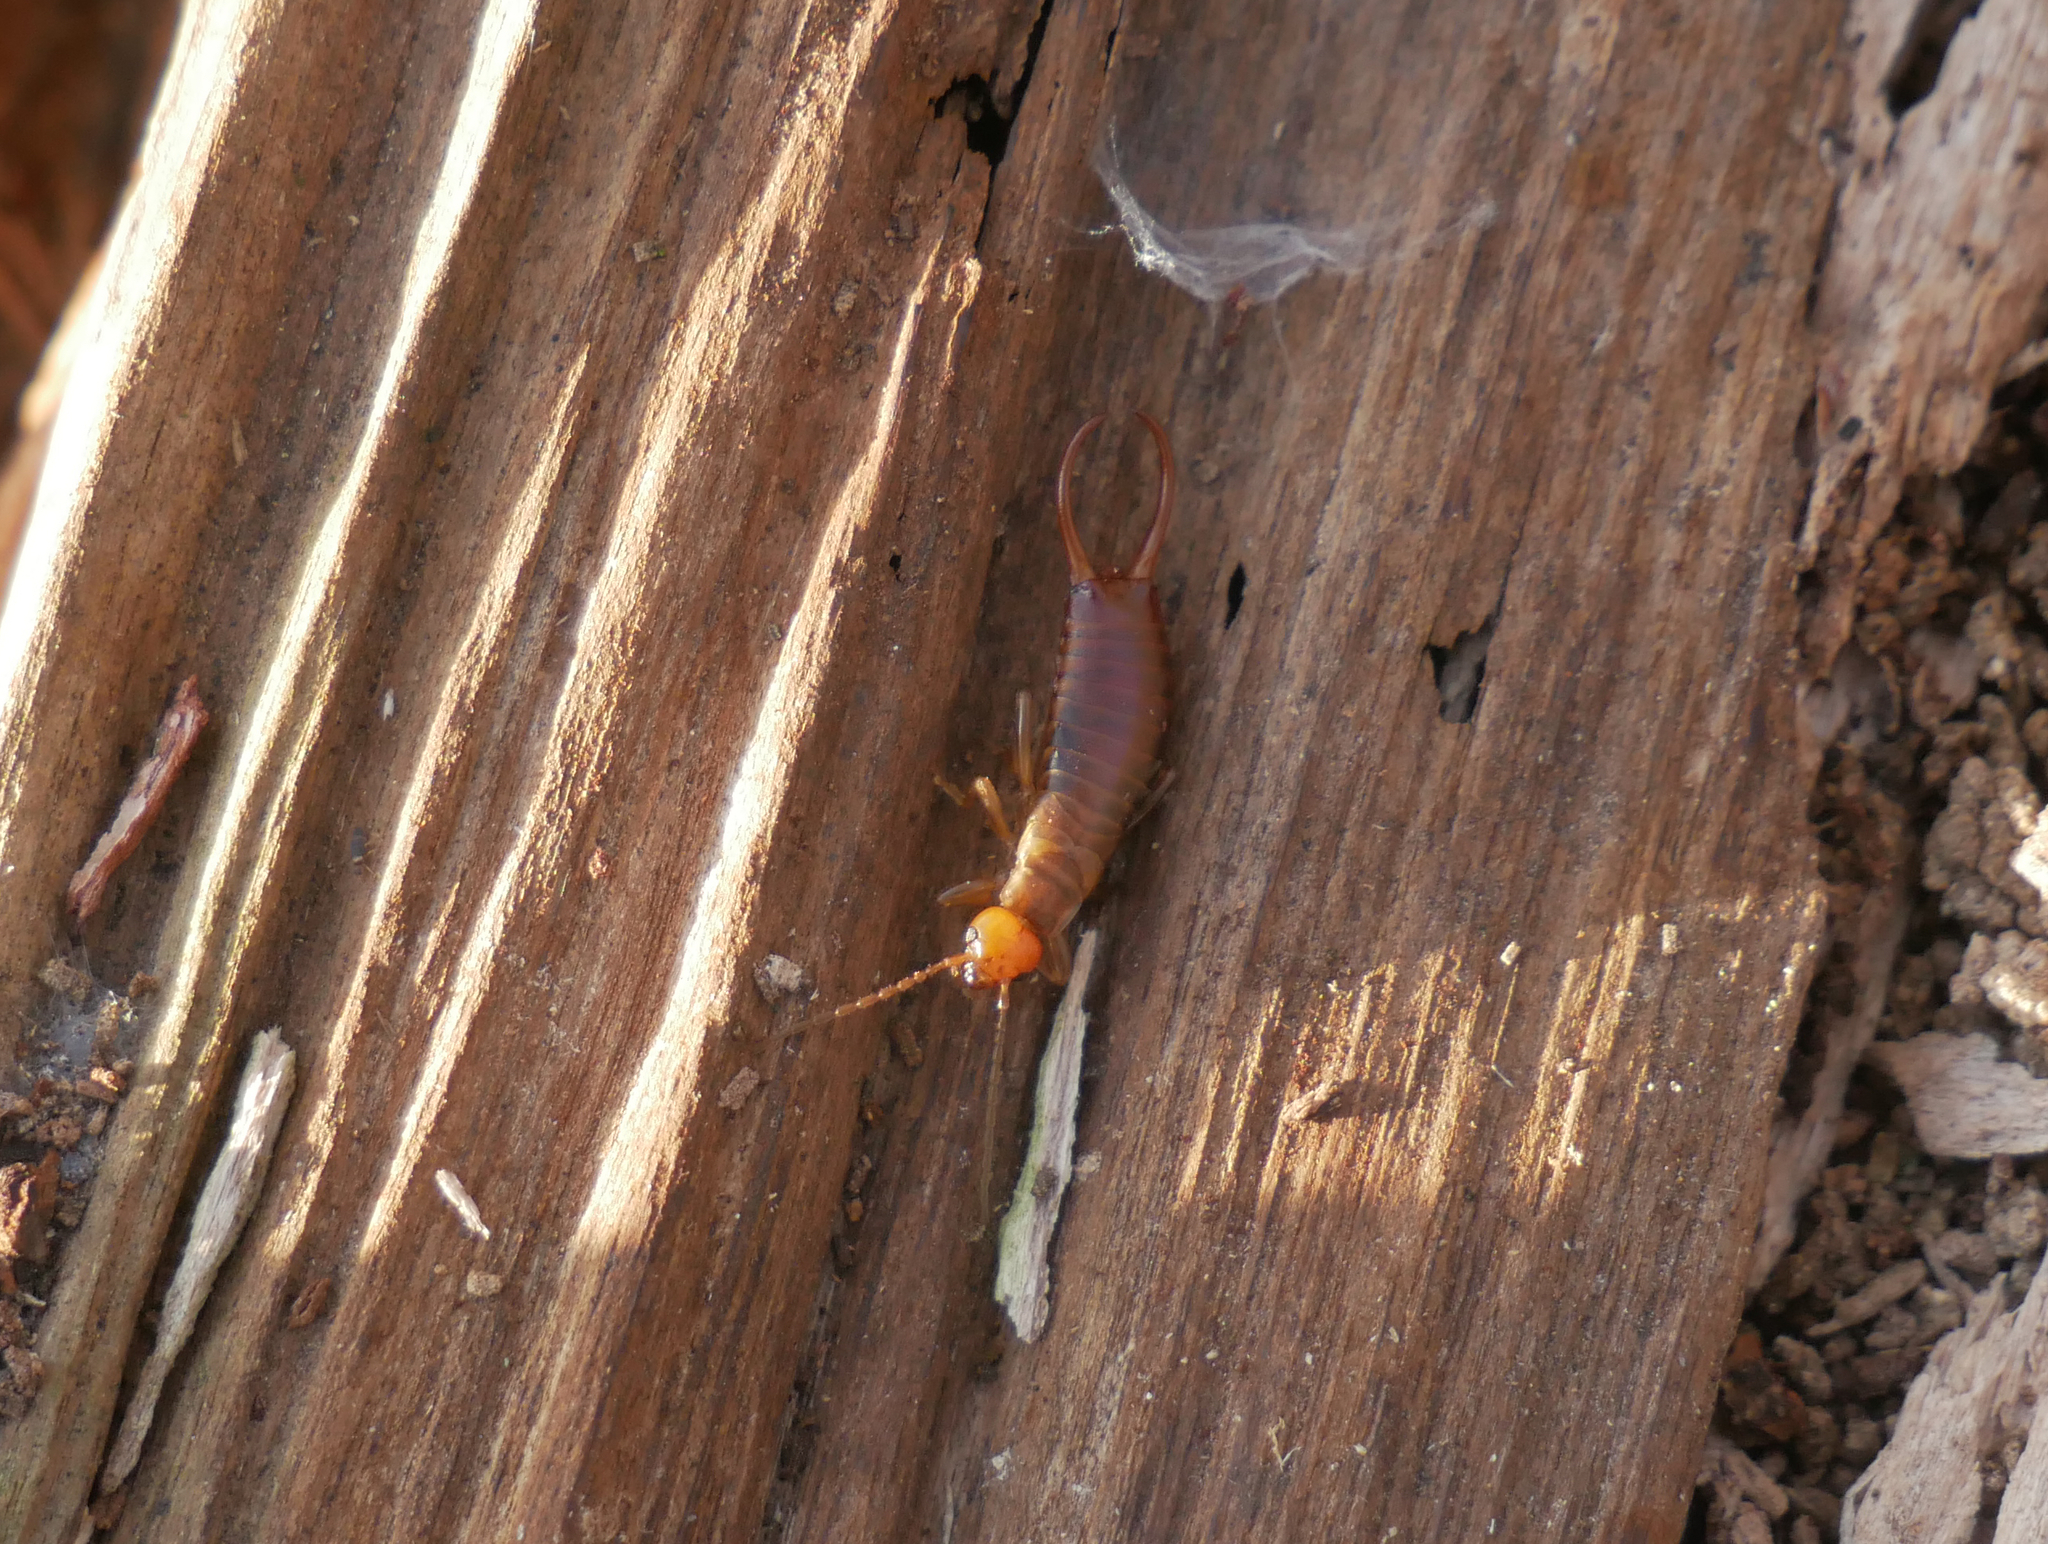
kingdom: Animalia
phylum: Arthropoda
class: Insecta
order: Dermaptera
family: Forficulidae
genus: Chelidurella
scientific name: Chelidurella acanthopygia
